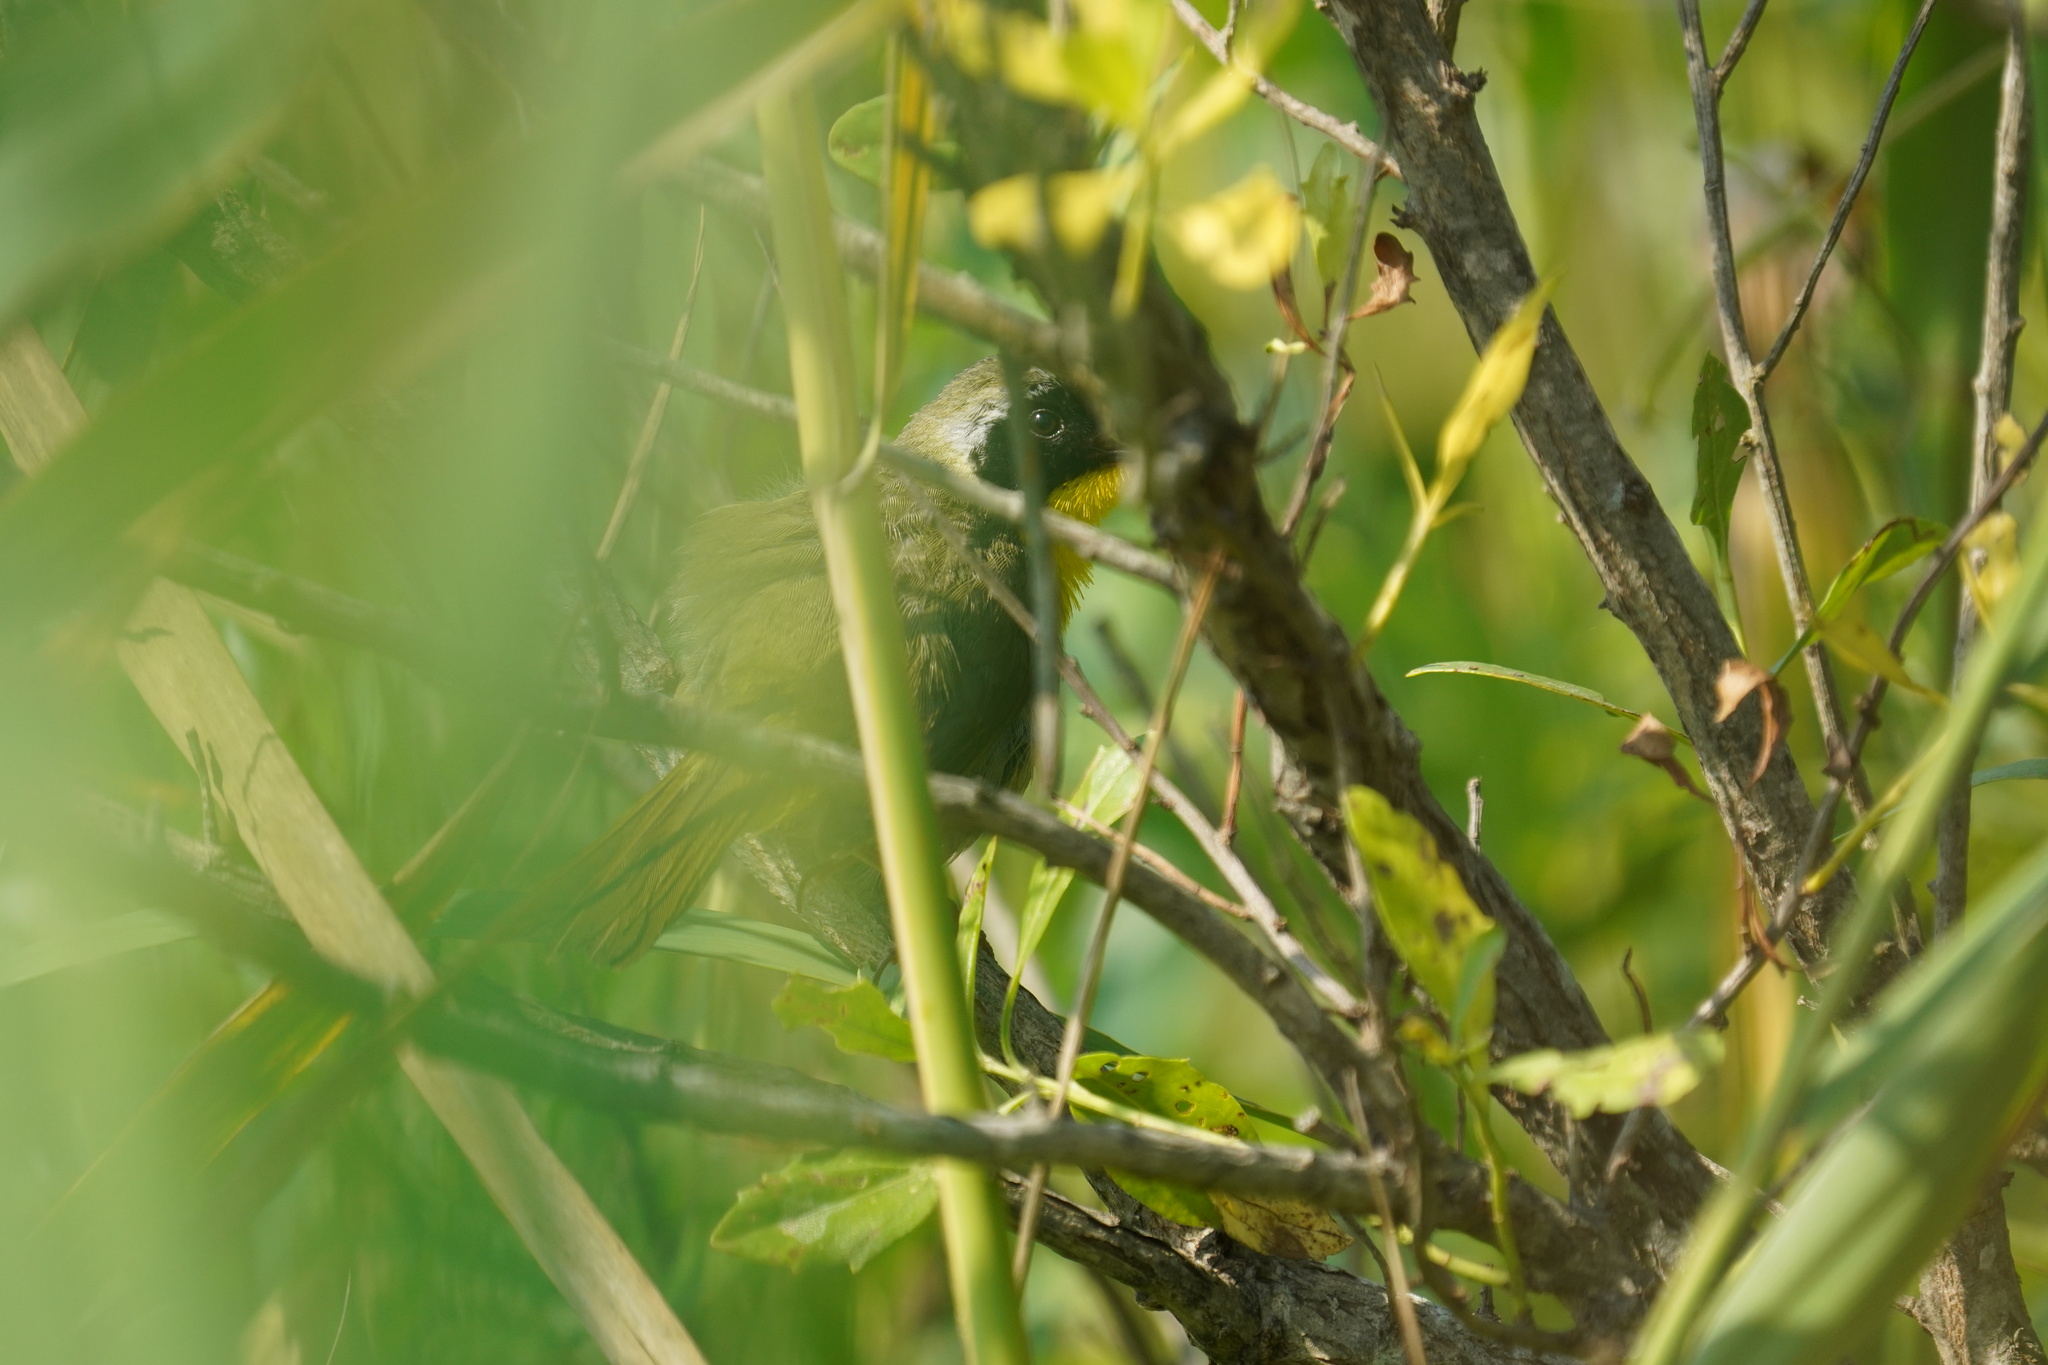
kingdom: Animalia
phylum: Chordata
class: Aves
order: Passeriformes
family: Parulidae
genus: Geothlypis
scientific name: Geothlypis trichas
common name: Common yellowthroat
